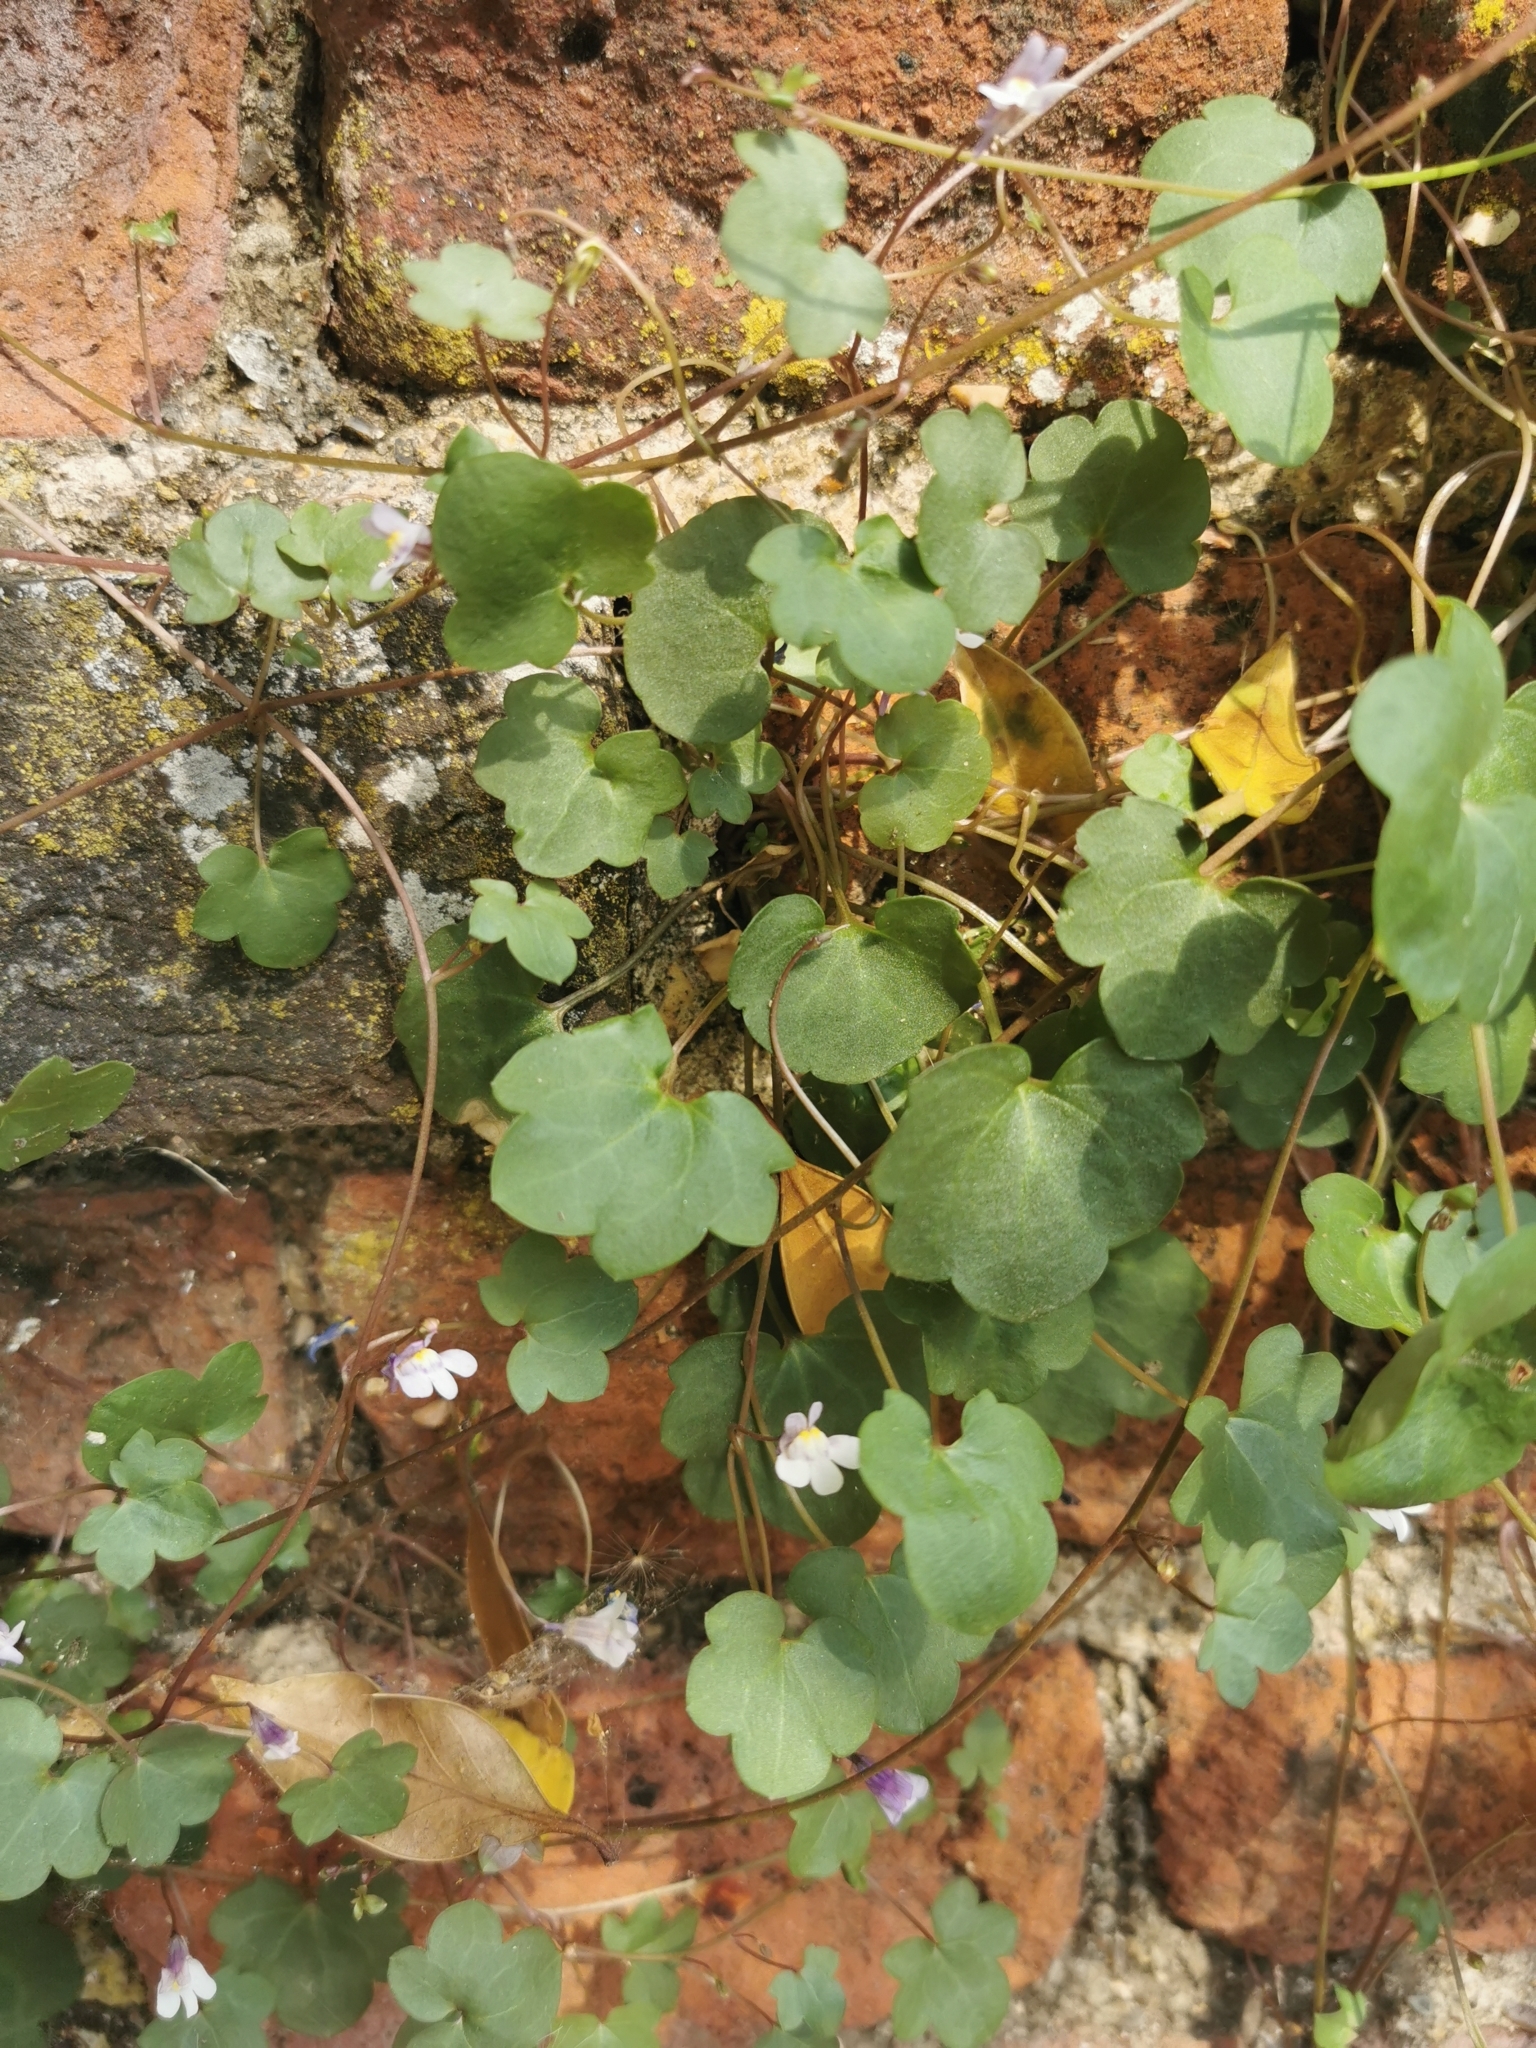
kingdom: Plantae
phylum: Tracheophyta
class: Magnoliopsida
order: Lamiales
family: Plantaginaceae
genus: Cymbalaria
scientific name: Cymbalaria muralis
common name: Ivy-leaved toadflax
